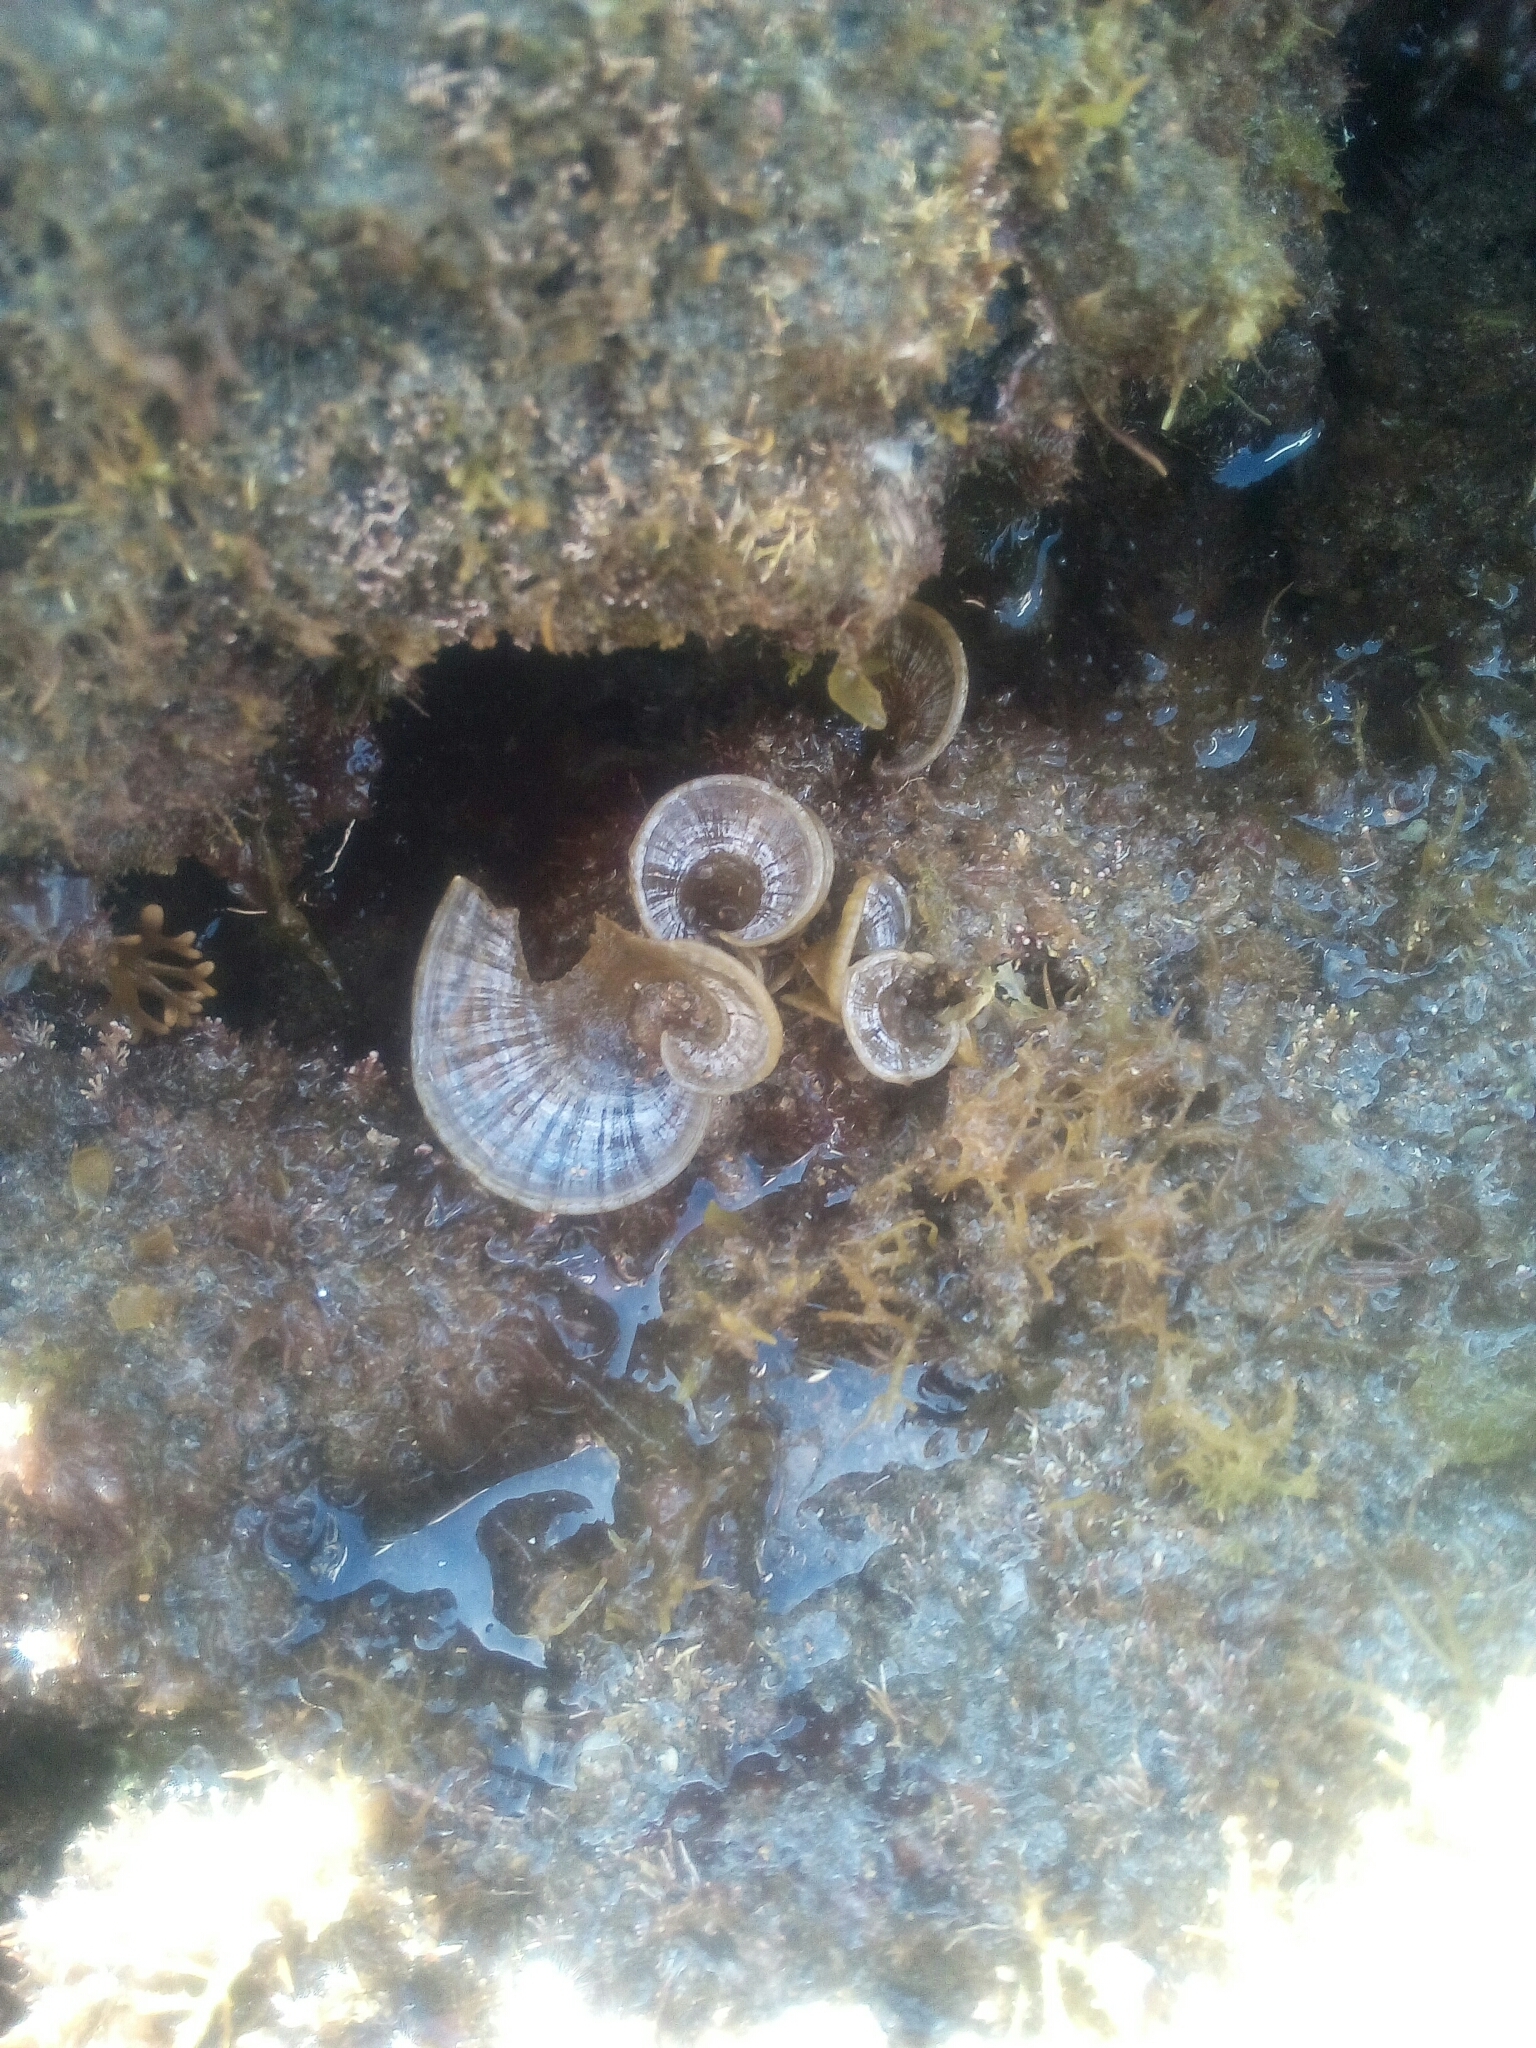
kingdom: Chromista
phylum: Ochrophyta
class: Phaeophyceae
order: Dictyotales
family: Dictyotaceae
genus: Padina
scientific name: Padina pavonica
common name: Turkey feather alga
